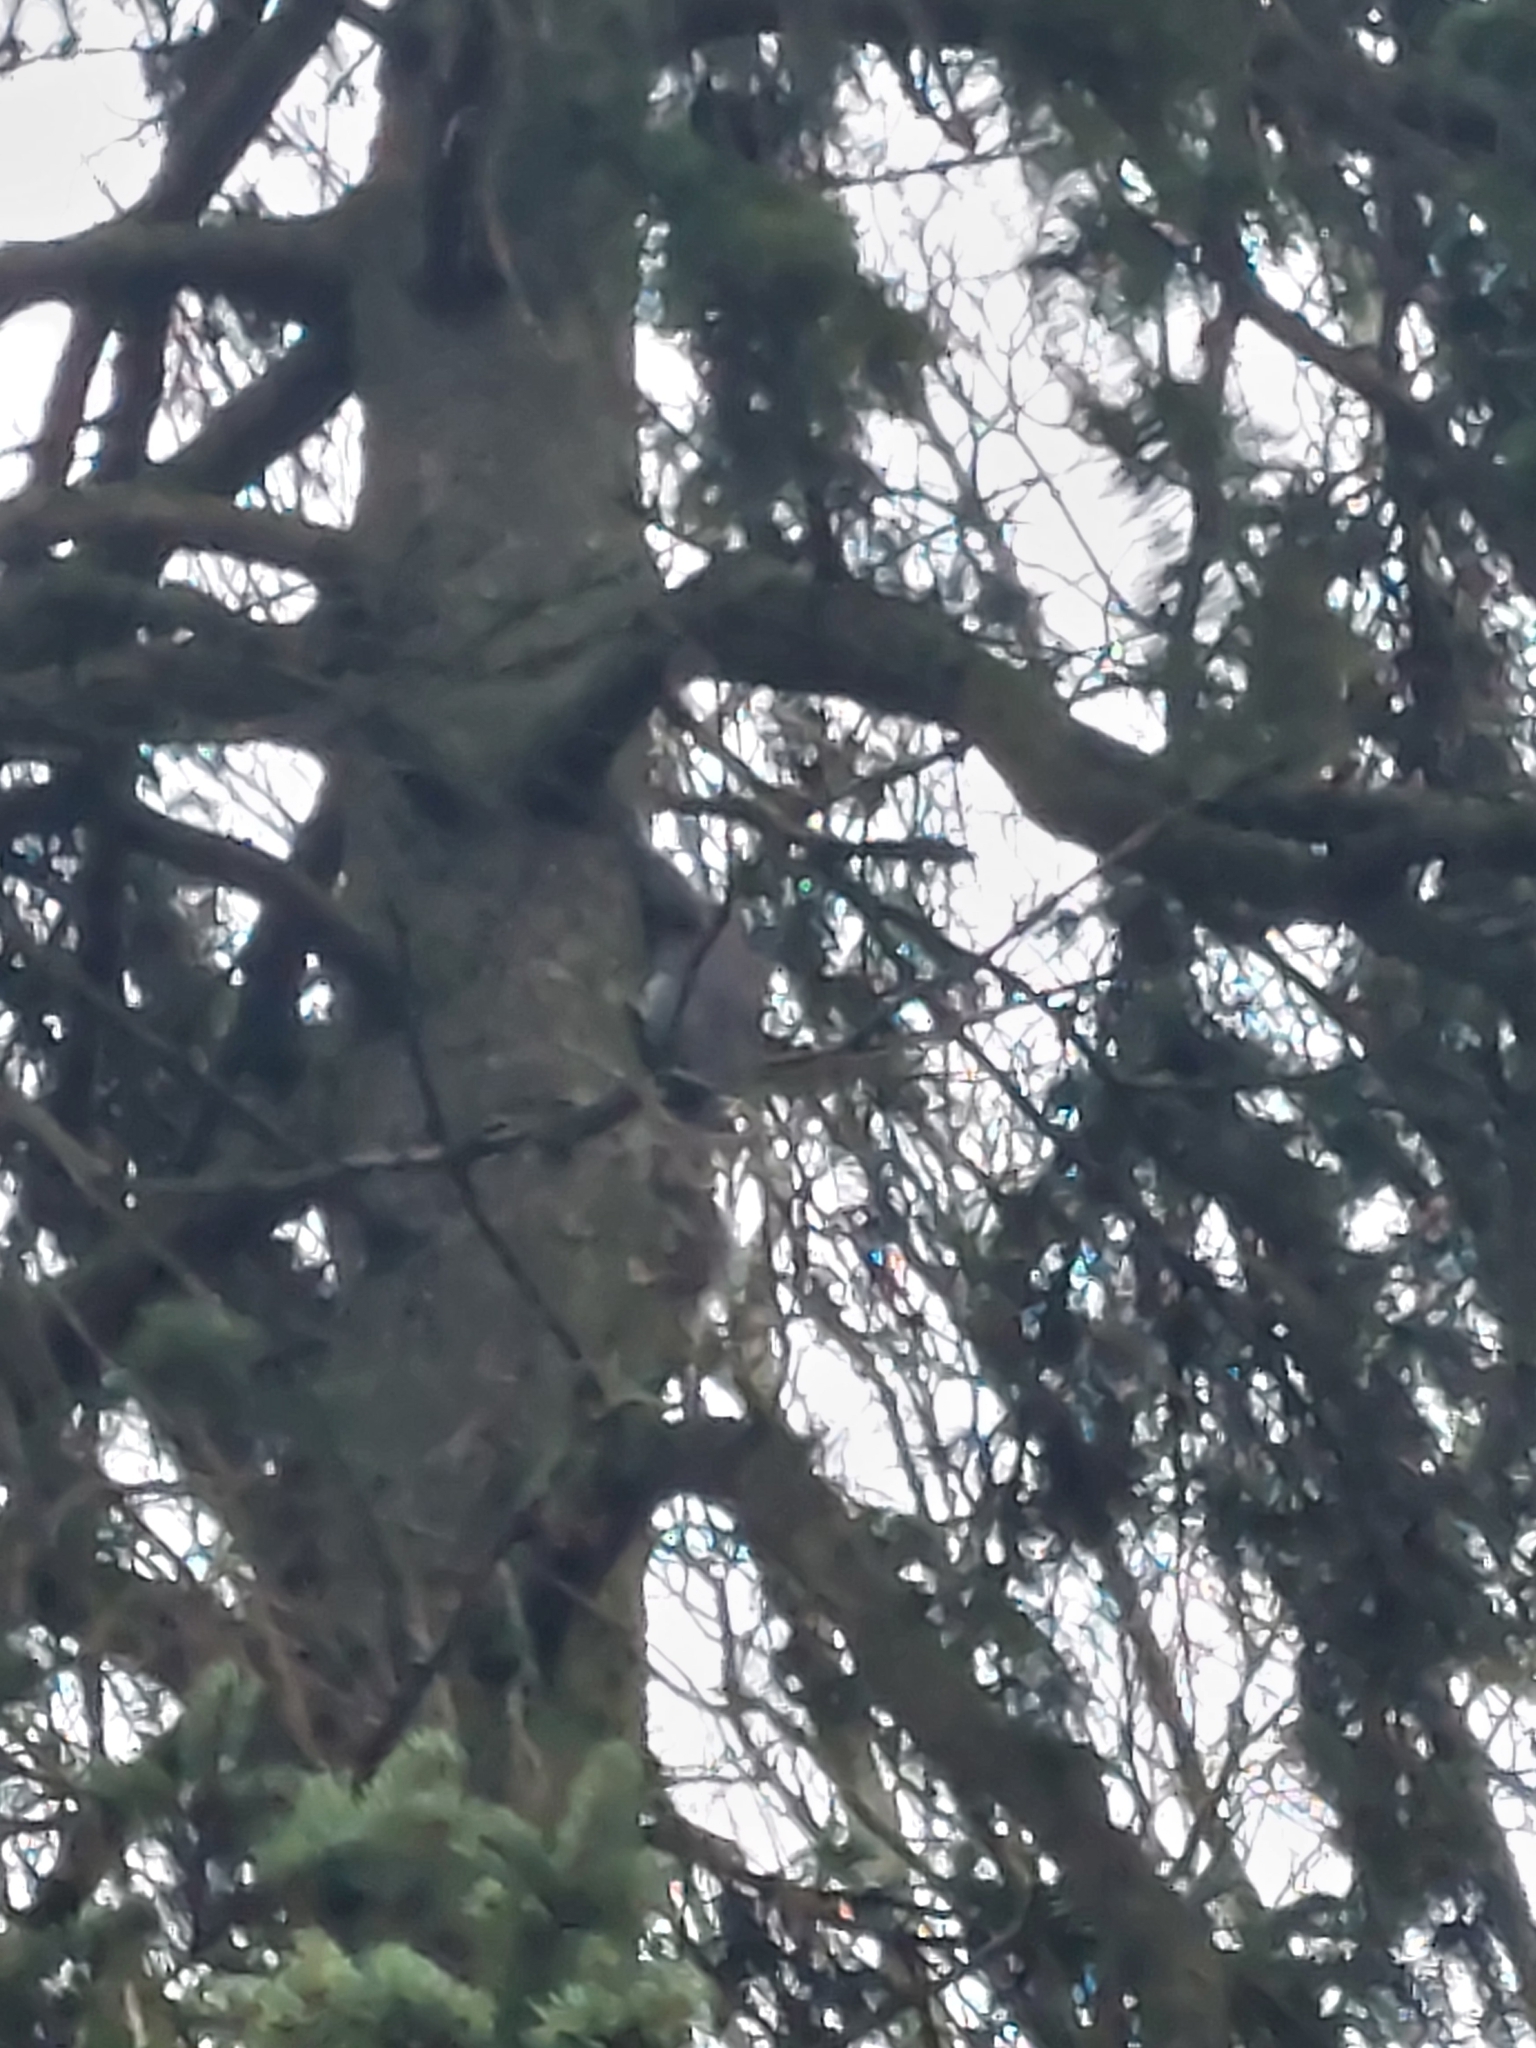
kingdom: Animalia
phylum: Chordata
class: Mammalia
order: Rodentia
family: Sciuridae
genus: Sciurus
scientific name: Sciurus carolinensis
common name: Eastern gray squirrel
